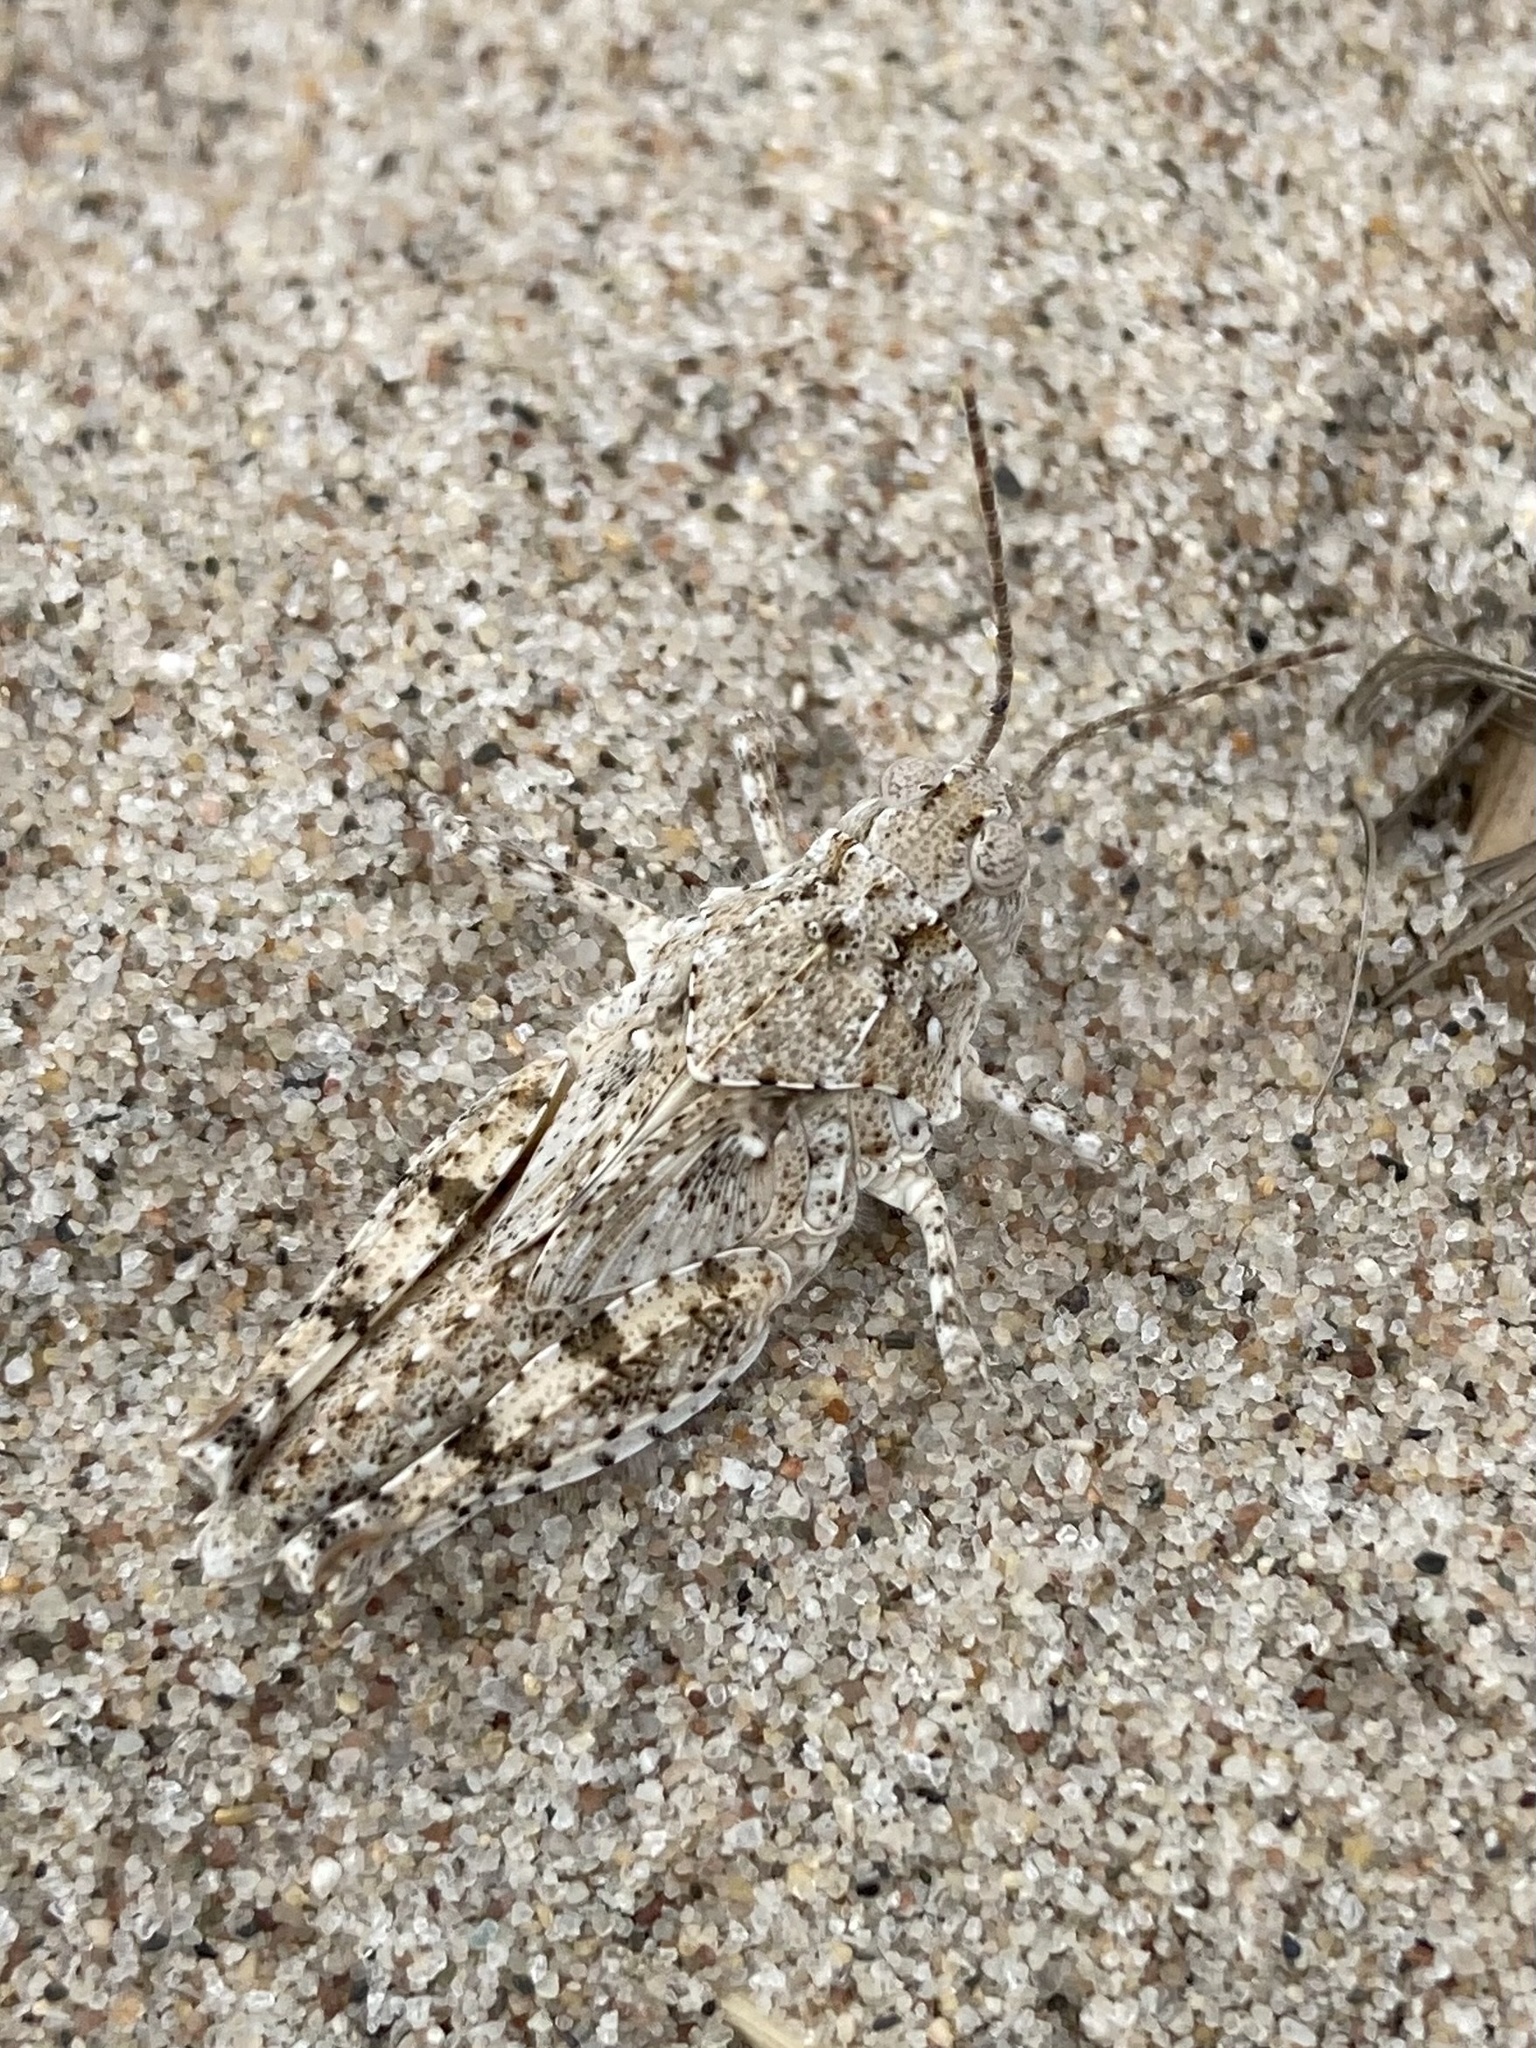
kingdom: Animalia
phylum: Arthropoda
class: Insecta
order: Orthoptera
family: Acrididae
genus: Trimerotropis
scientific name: Trimerotropis maritima
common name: Seaside locust
